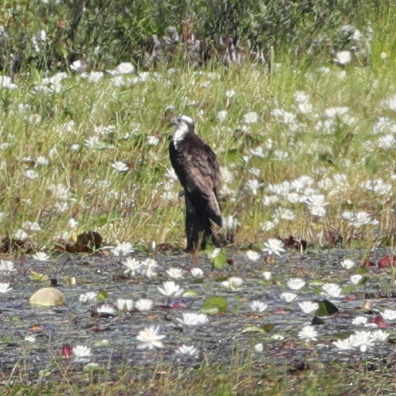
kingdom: Animalia
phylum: Chordata
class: Aves
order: Accipitriformes
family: Pandionidae
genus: Pandion
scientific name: Pandion haliaetus
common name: Osprey
